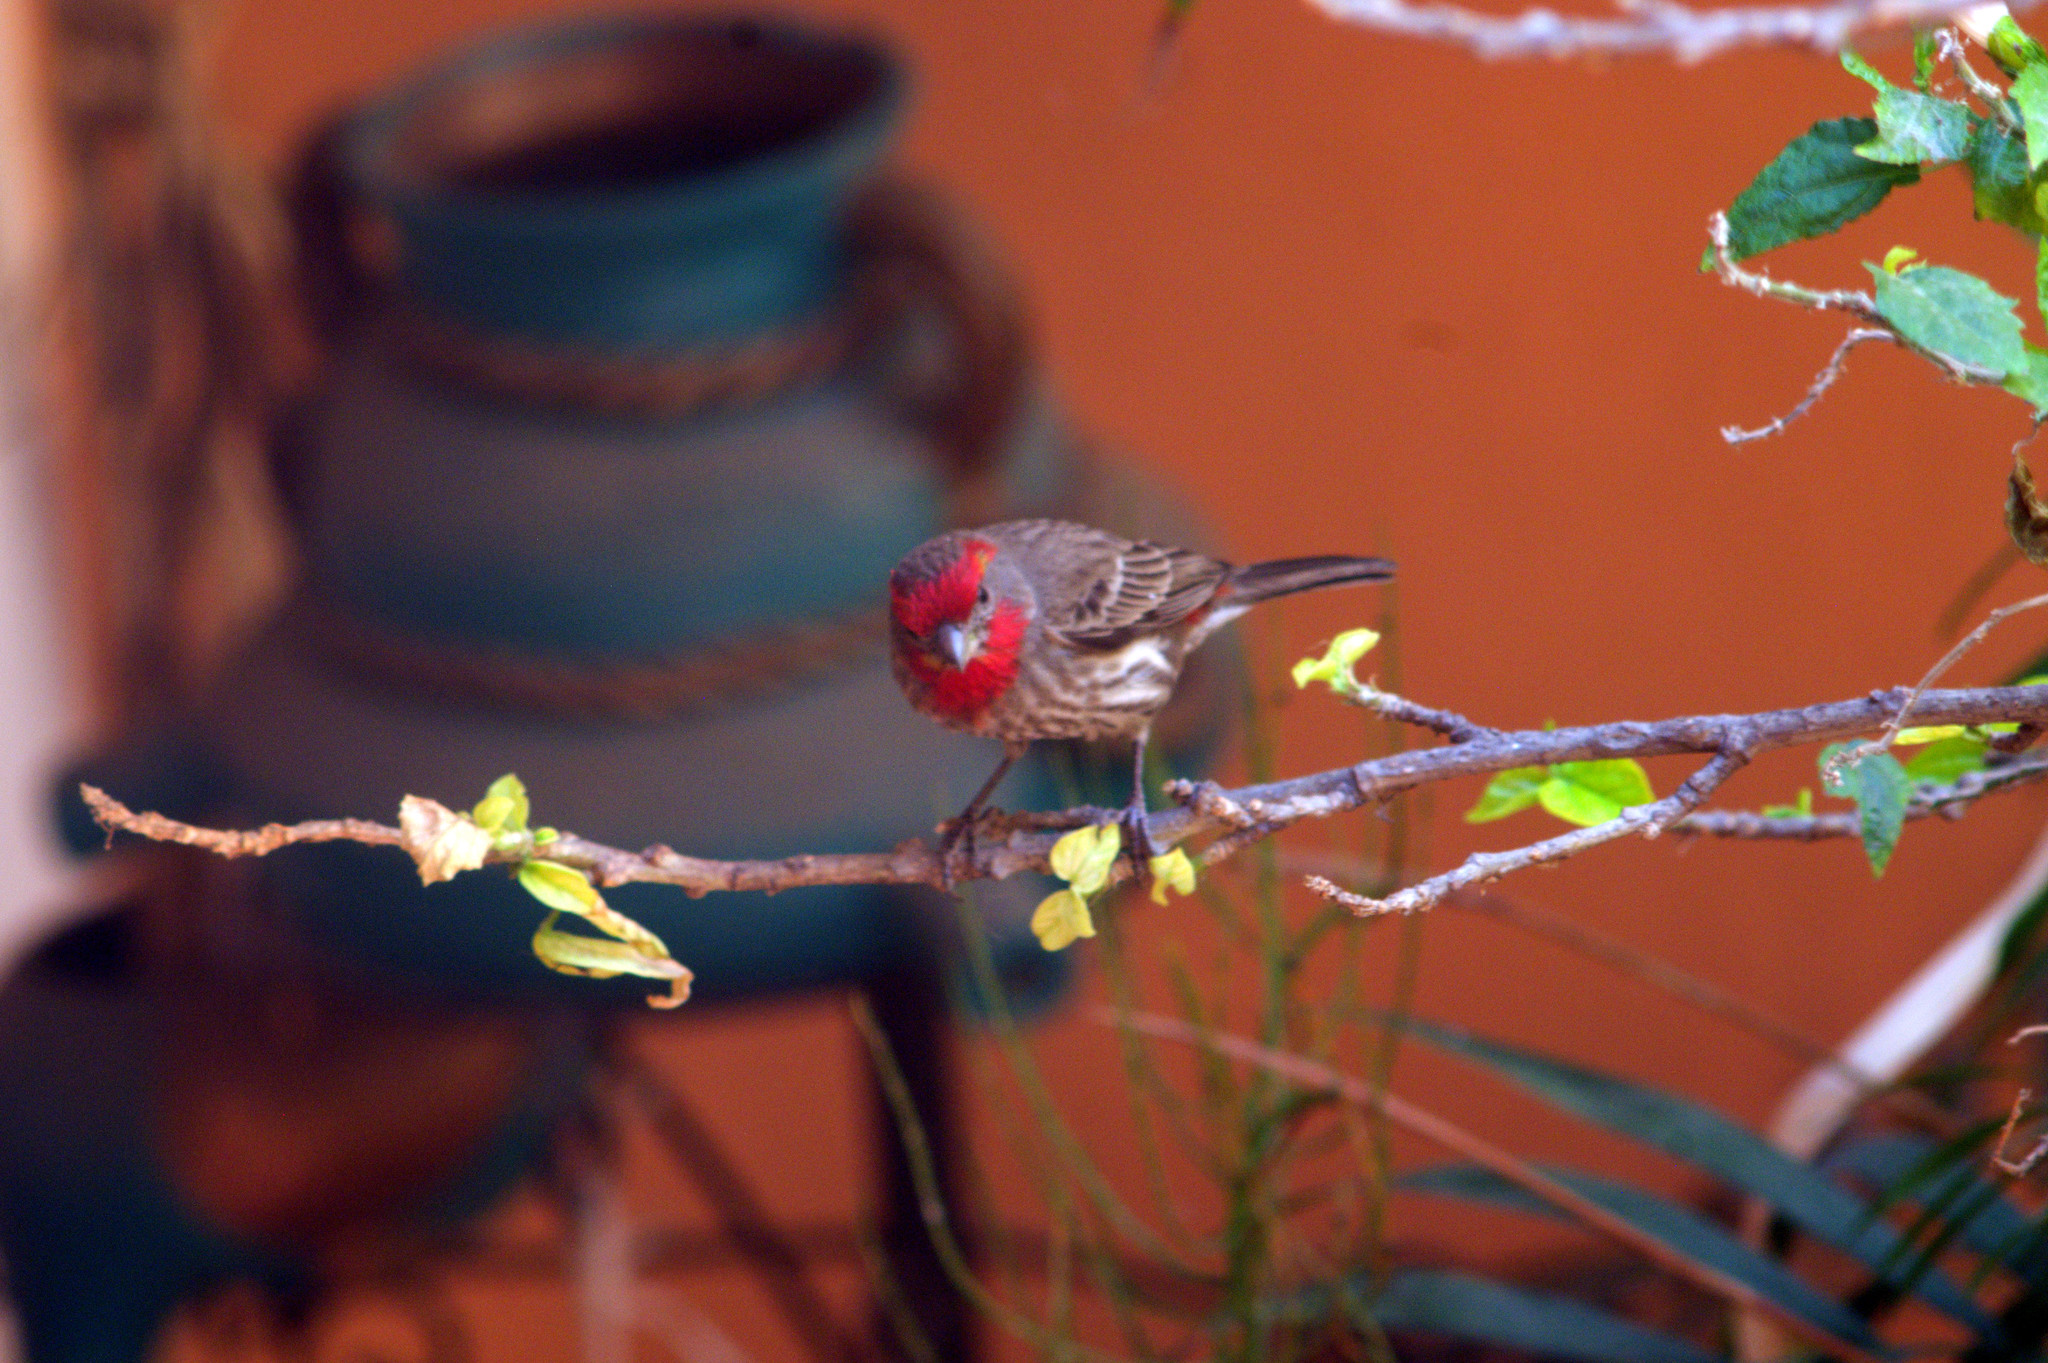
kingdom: Animalia
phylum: Chordata
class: Aves
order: Passeriformes
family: Fringillidae
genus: Haemorhous
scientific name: Haemorhous mexicanus
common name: House finch
